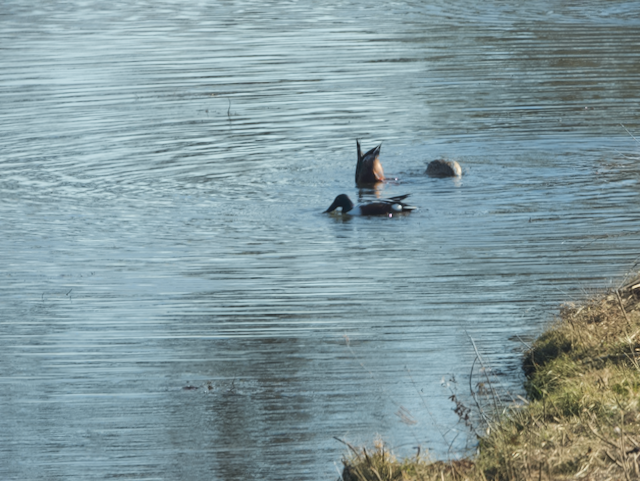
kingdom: Animalia
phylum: Chordata
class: Aves
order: Anseriformes
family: Anatidae
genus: Spatula
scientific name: Spatula clypeata
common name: Northern shoveler
